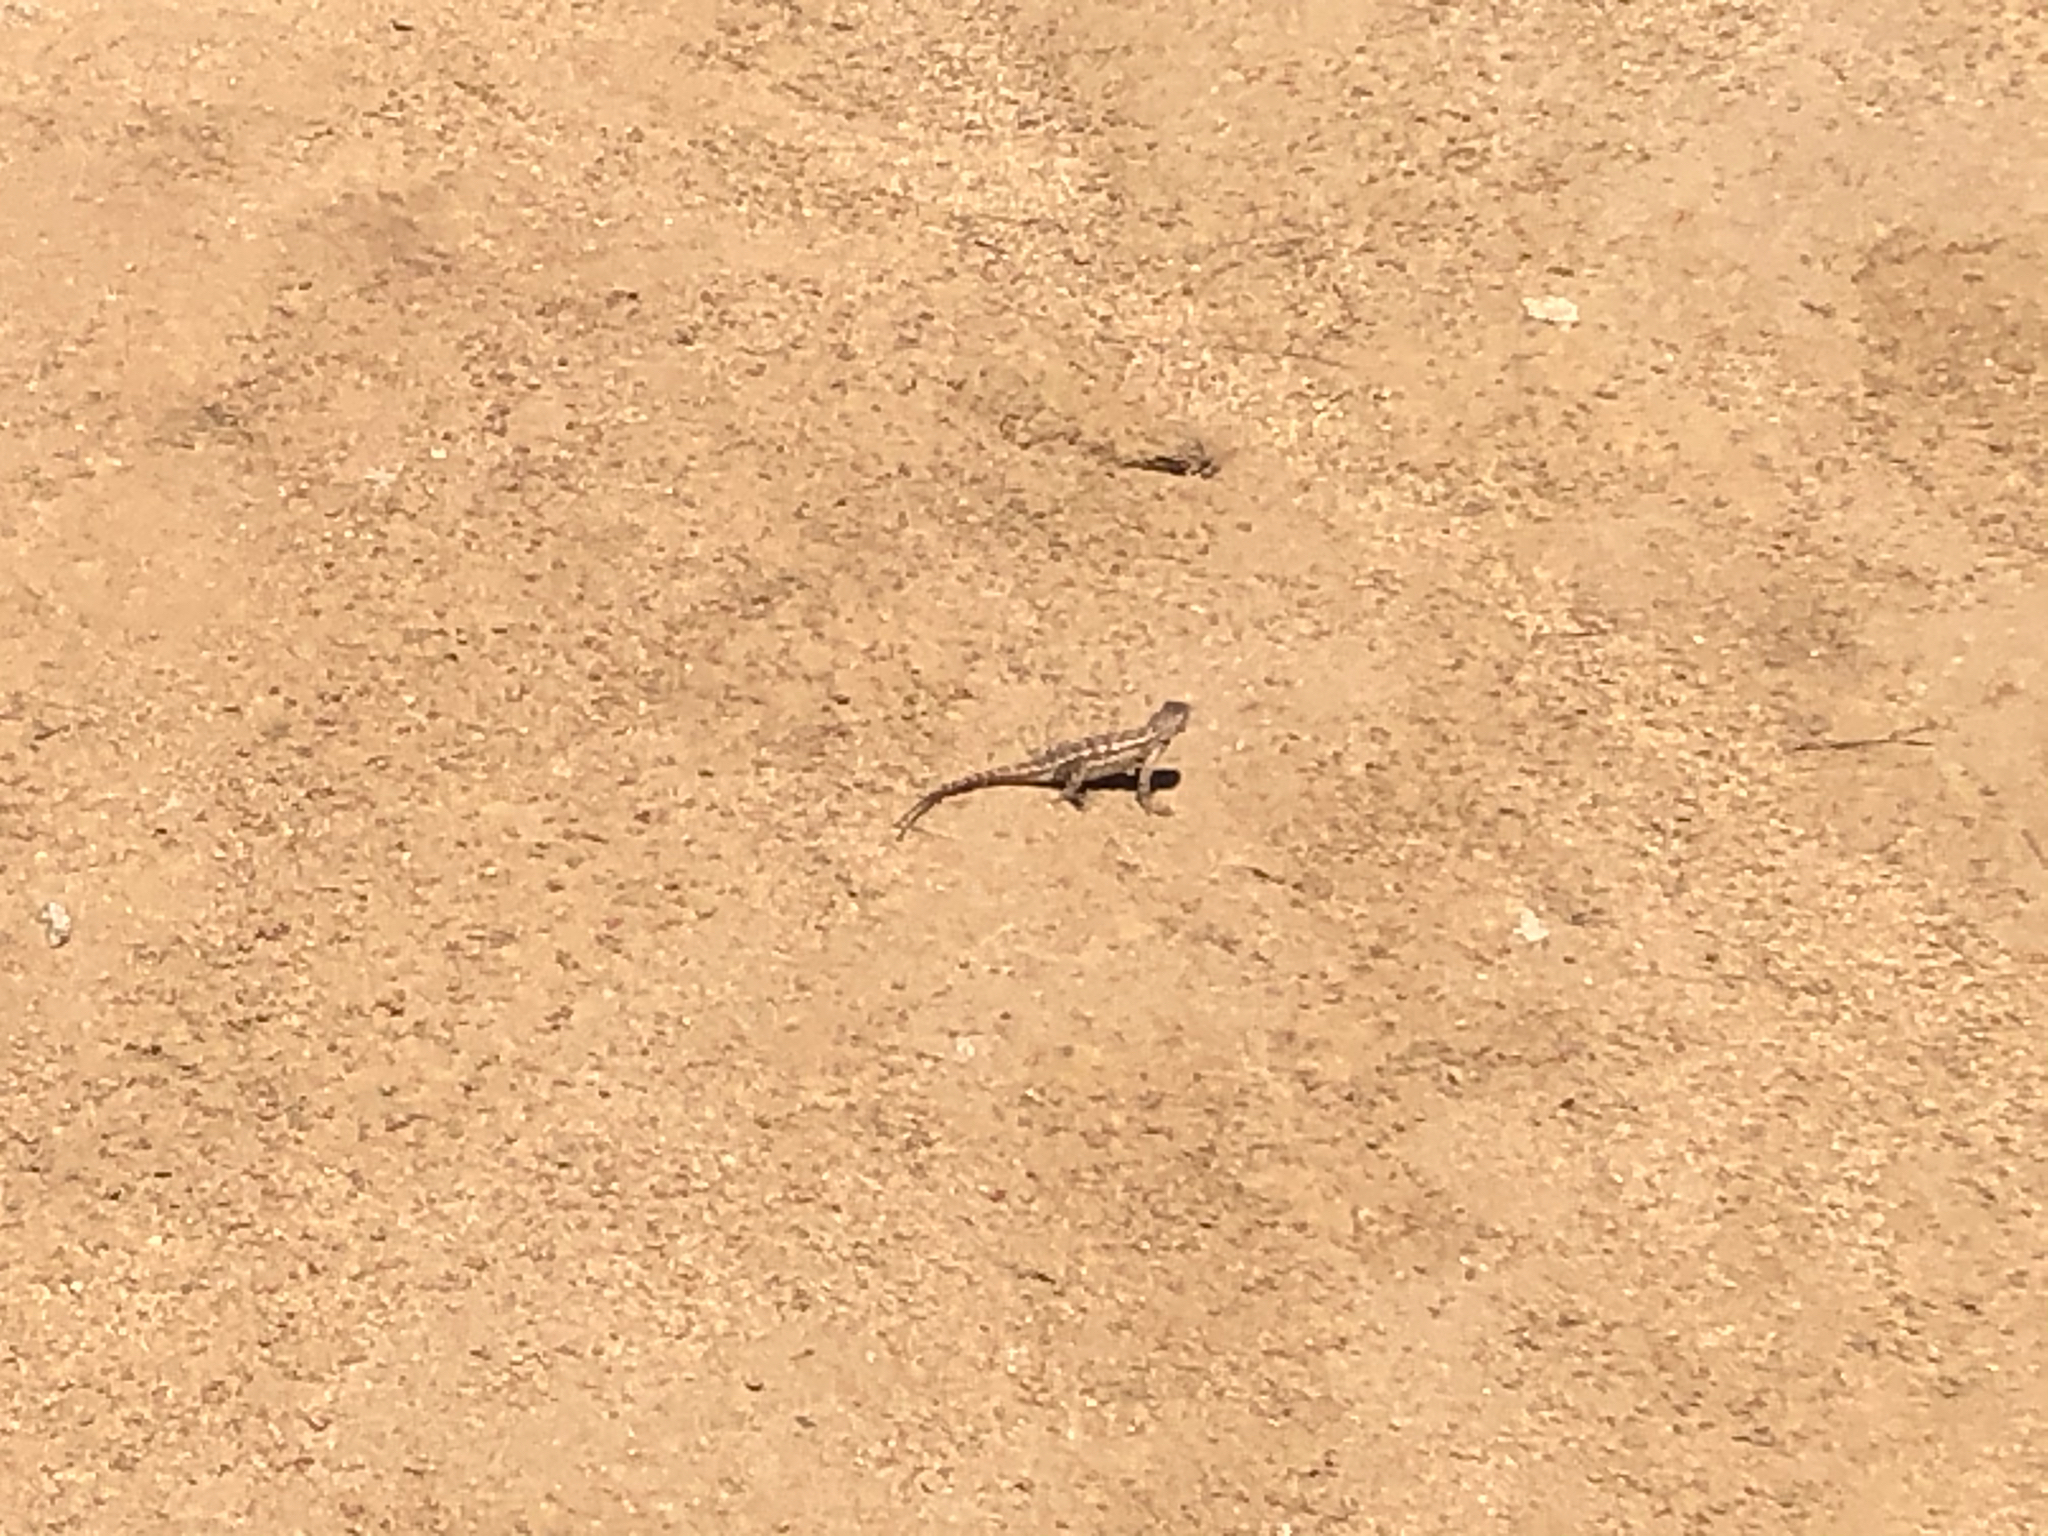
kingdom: Animalia
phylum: Chordata
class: Squamata
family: Phrynosomatidae
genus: Sceloporus
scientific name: Sceloporus occidentalis
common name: Western fence lizard
